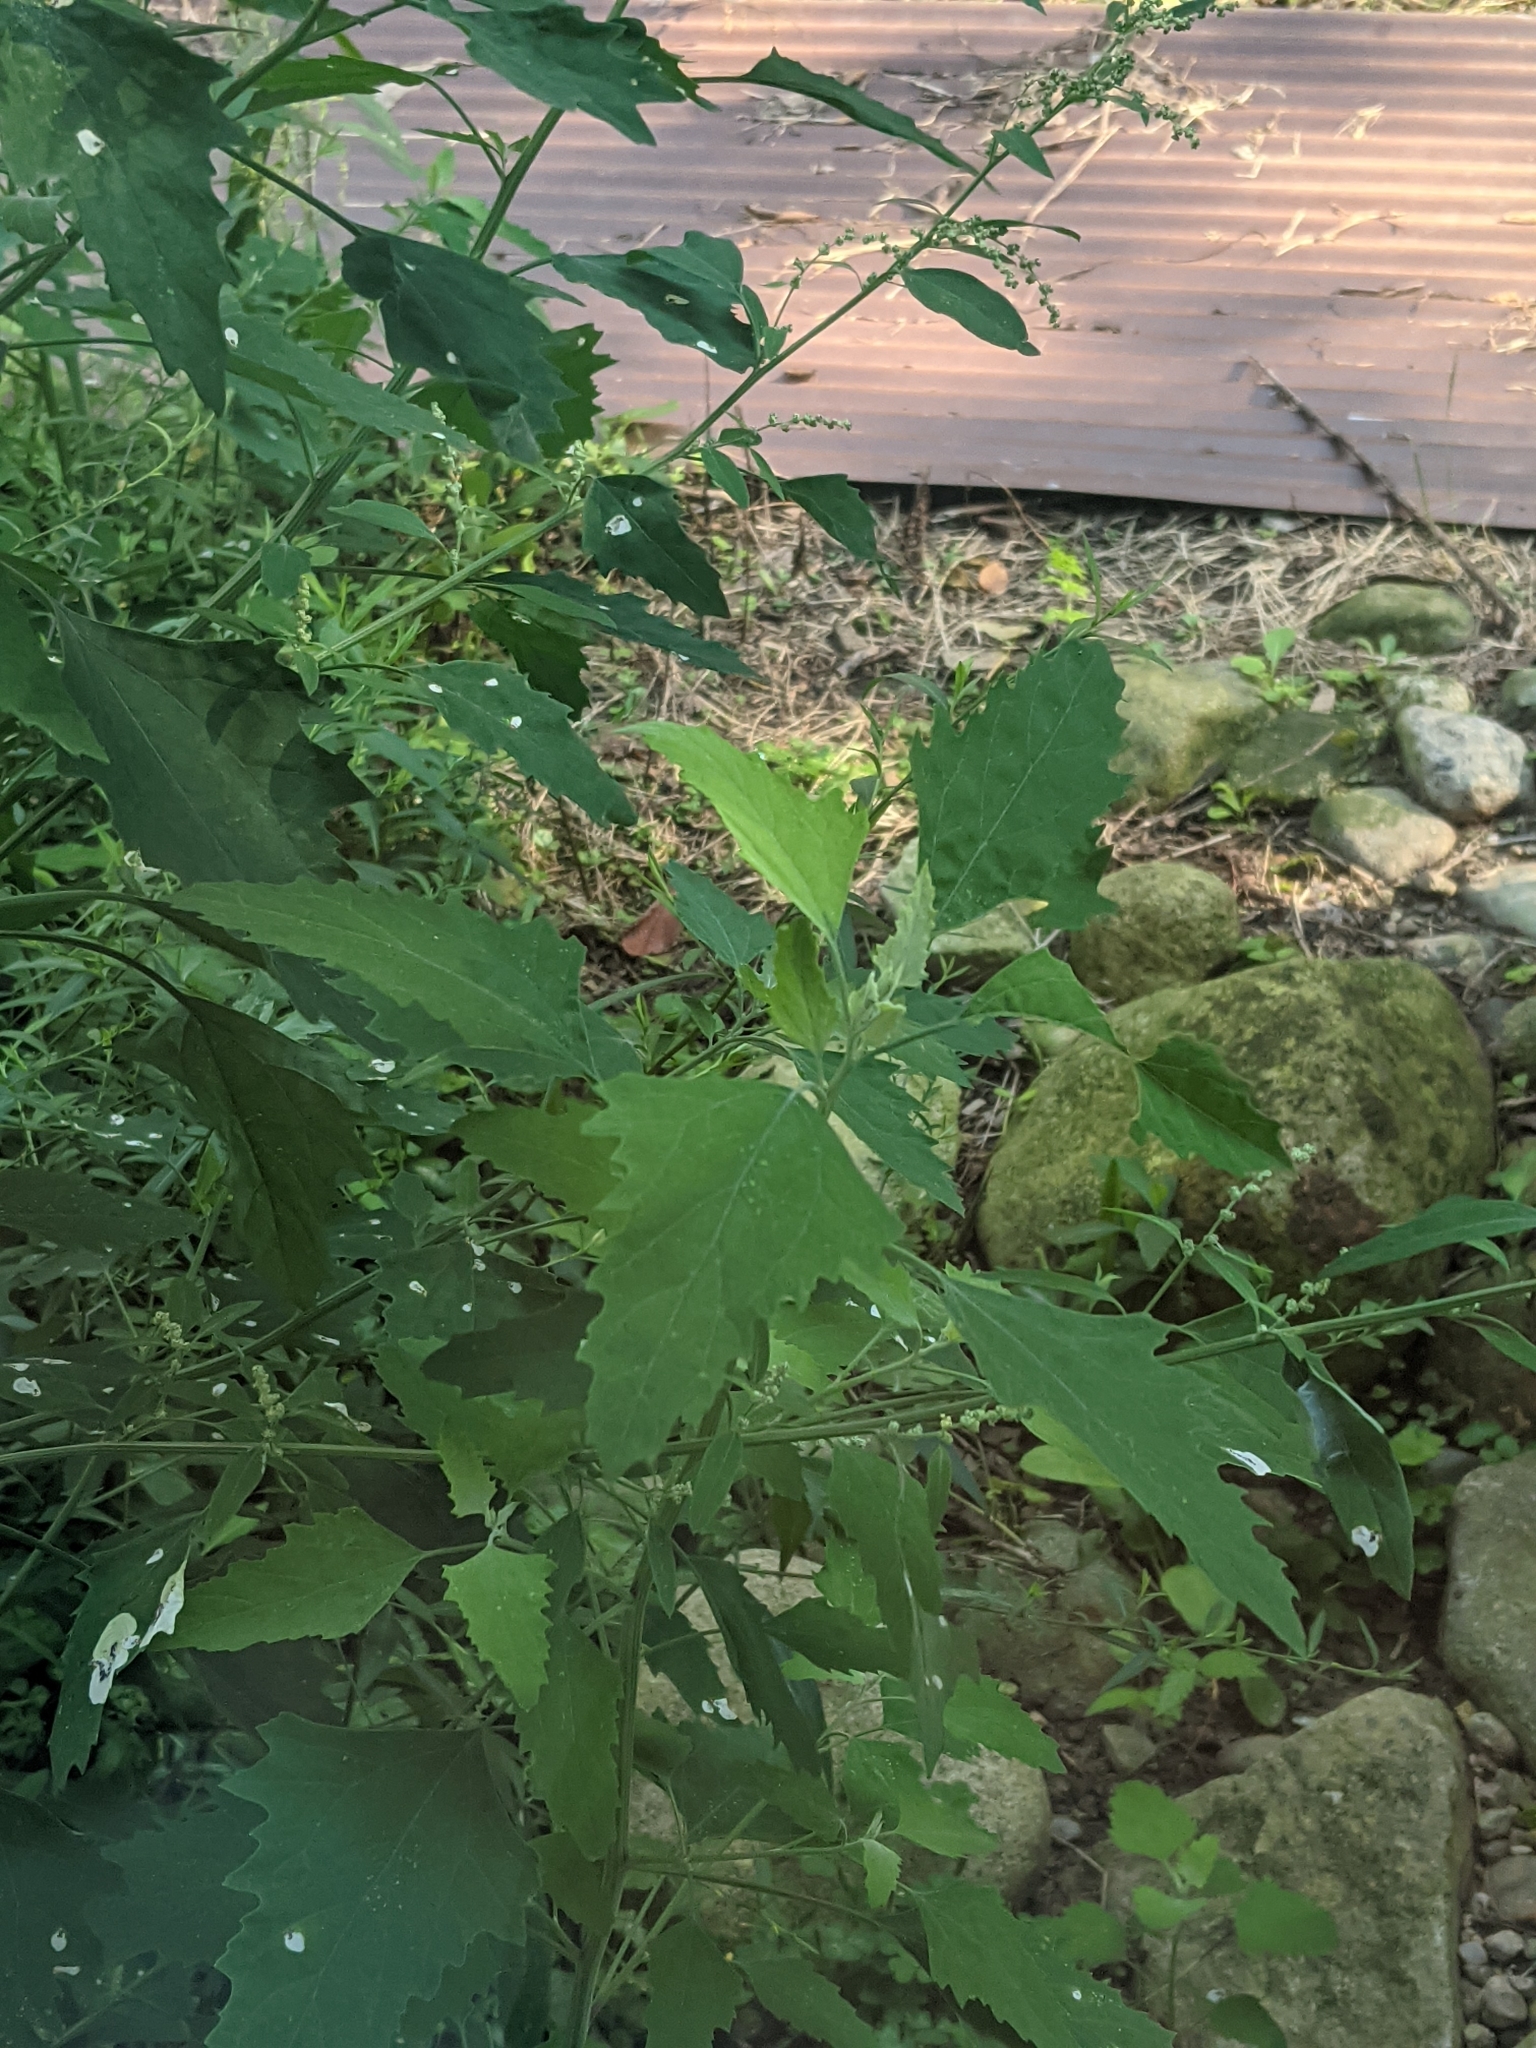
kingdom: Plantae
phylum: Tracheophyta
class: Magnoliopsida
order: Caryophyllales
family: Amaranthaceae
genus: Chenopodium
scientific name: Chenopodium album
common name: Fat-hen
